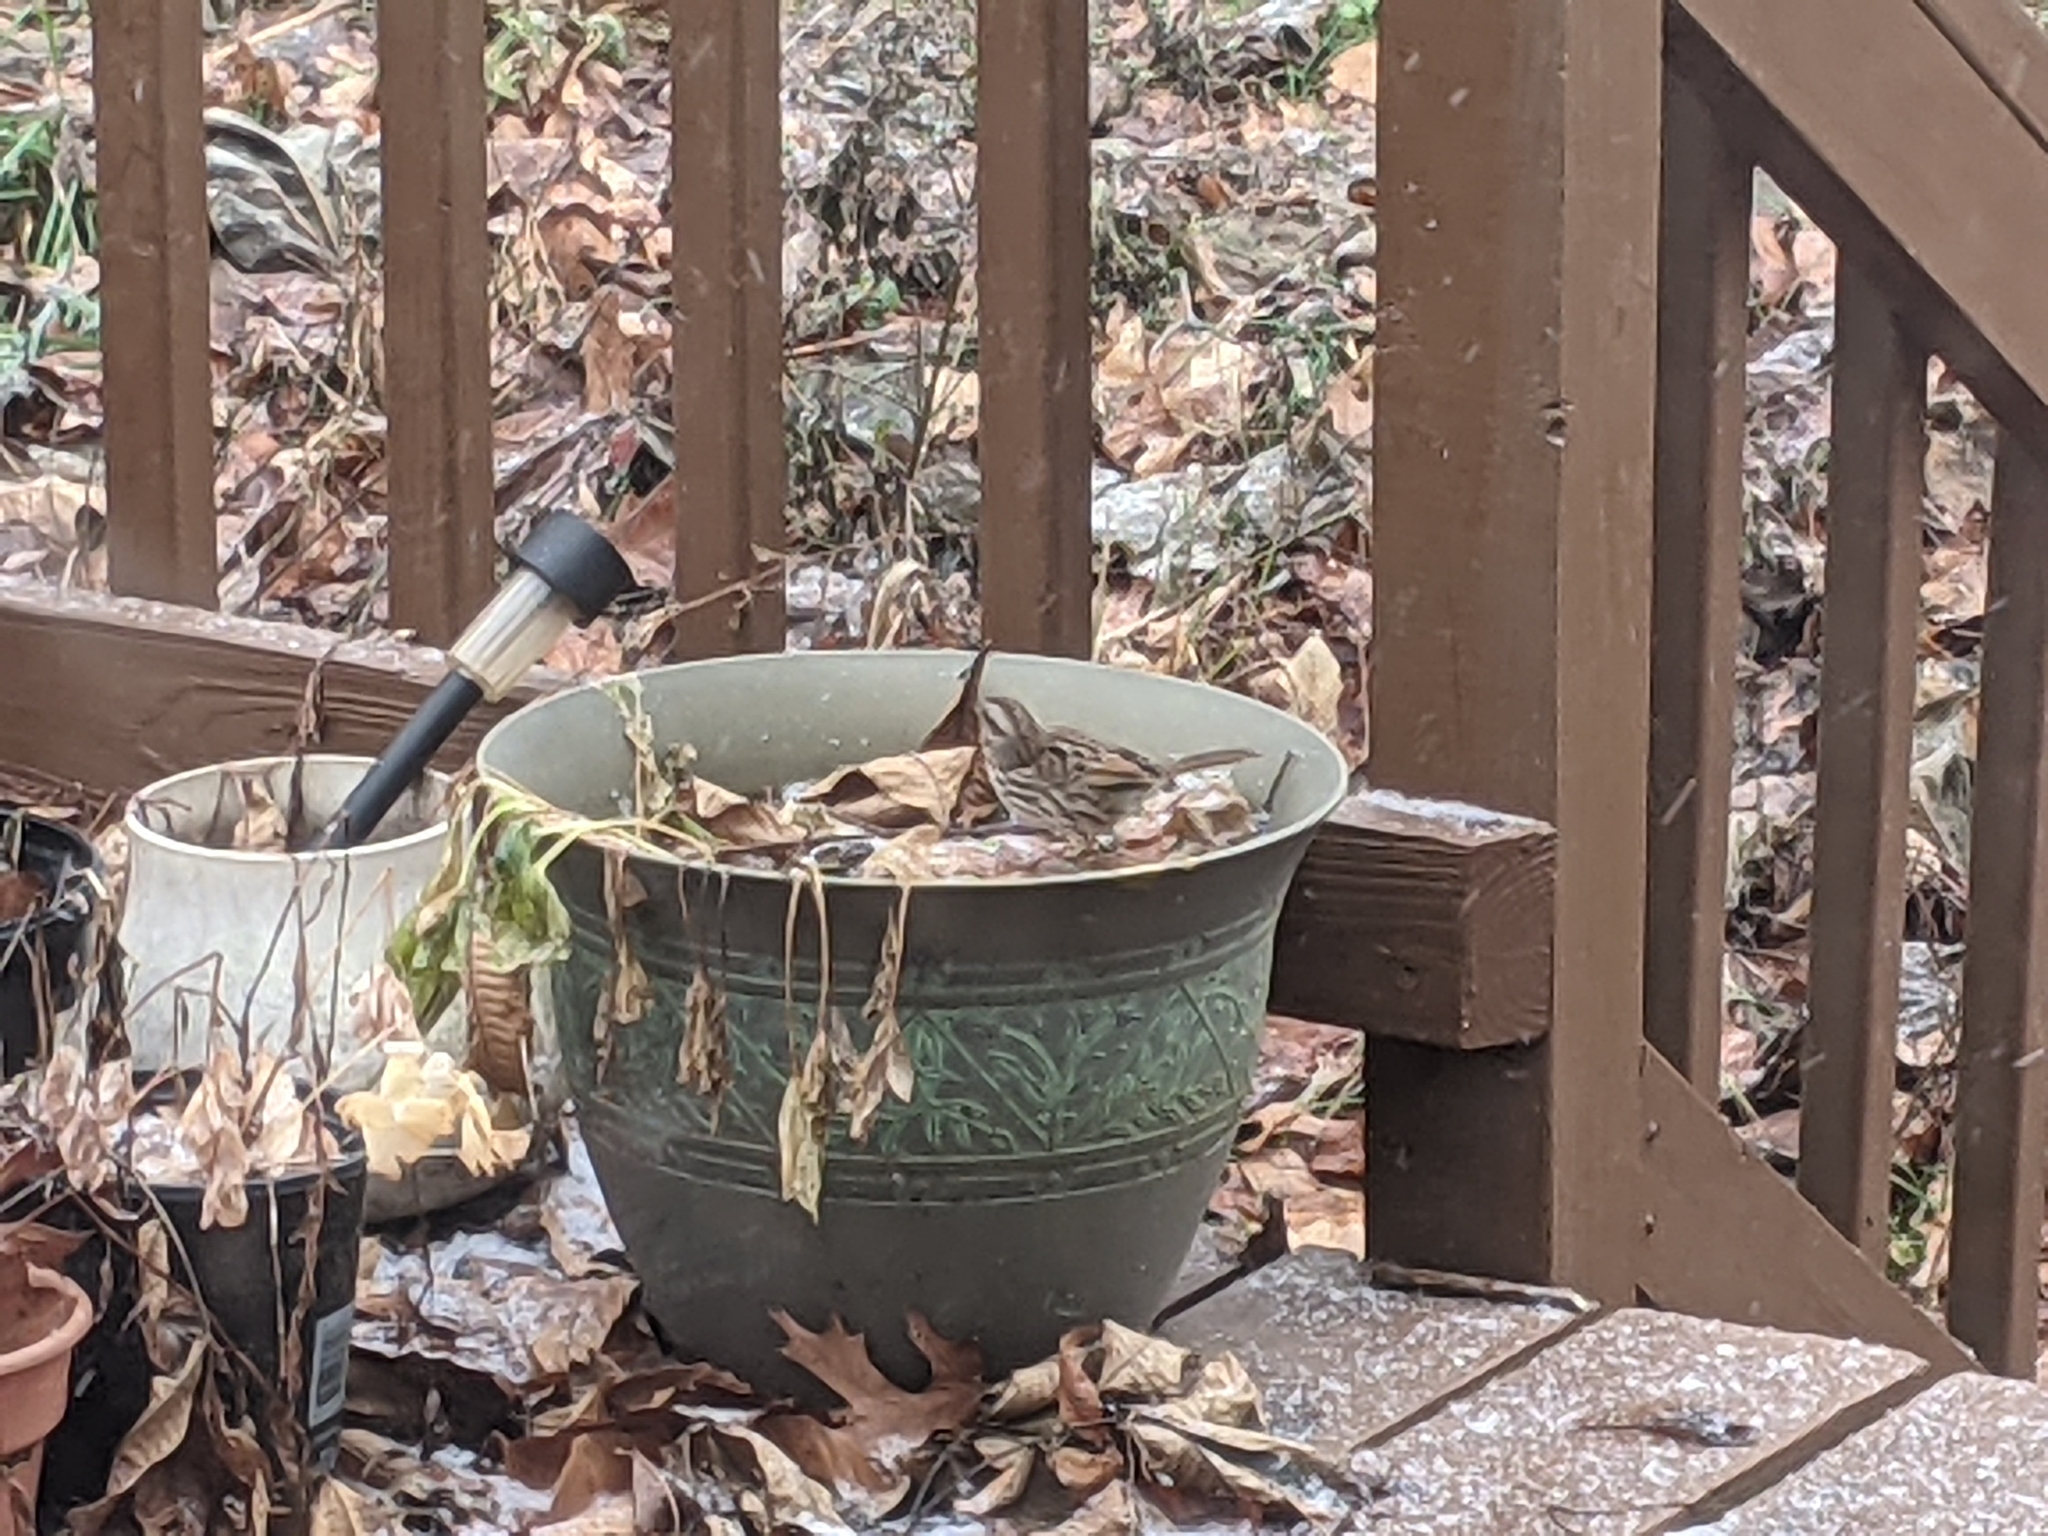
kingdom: Animalia
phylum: Chordata
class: Aves
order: Passeriformes
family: Passerellidae
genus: Melospiza
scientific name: Melospiza melodia
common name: Song sparrow
